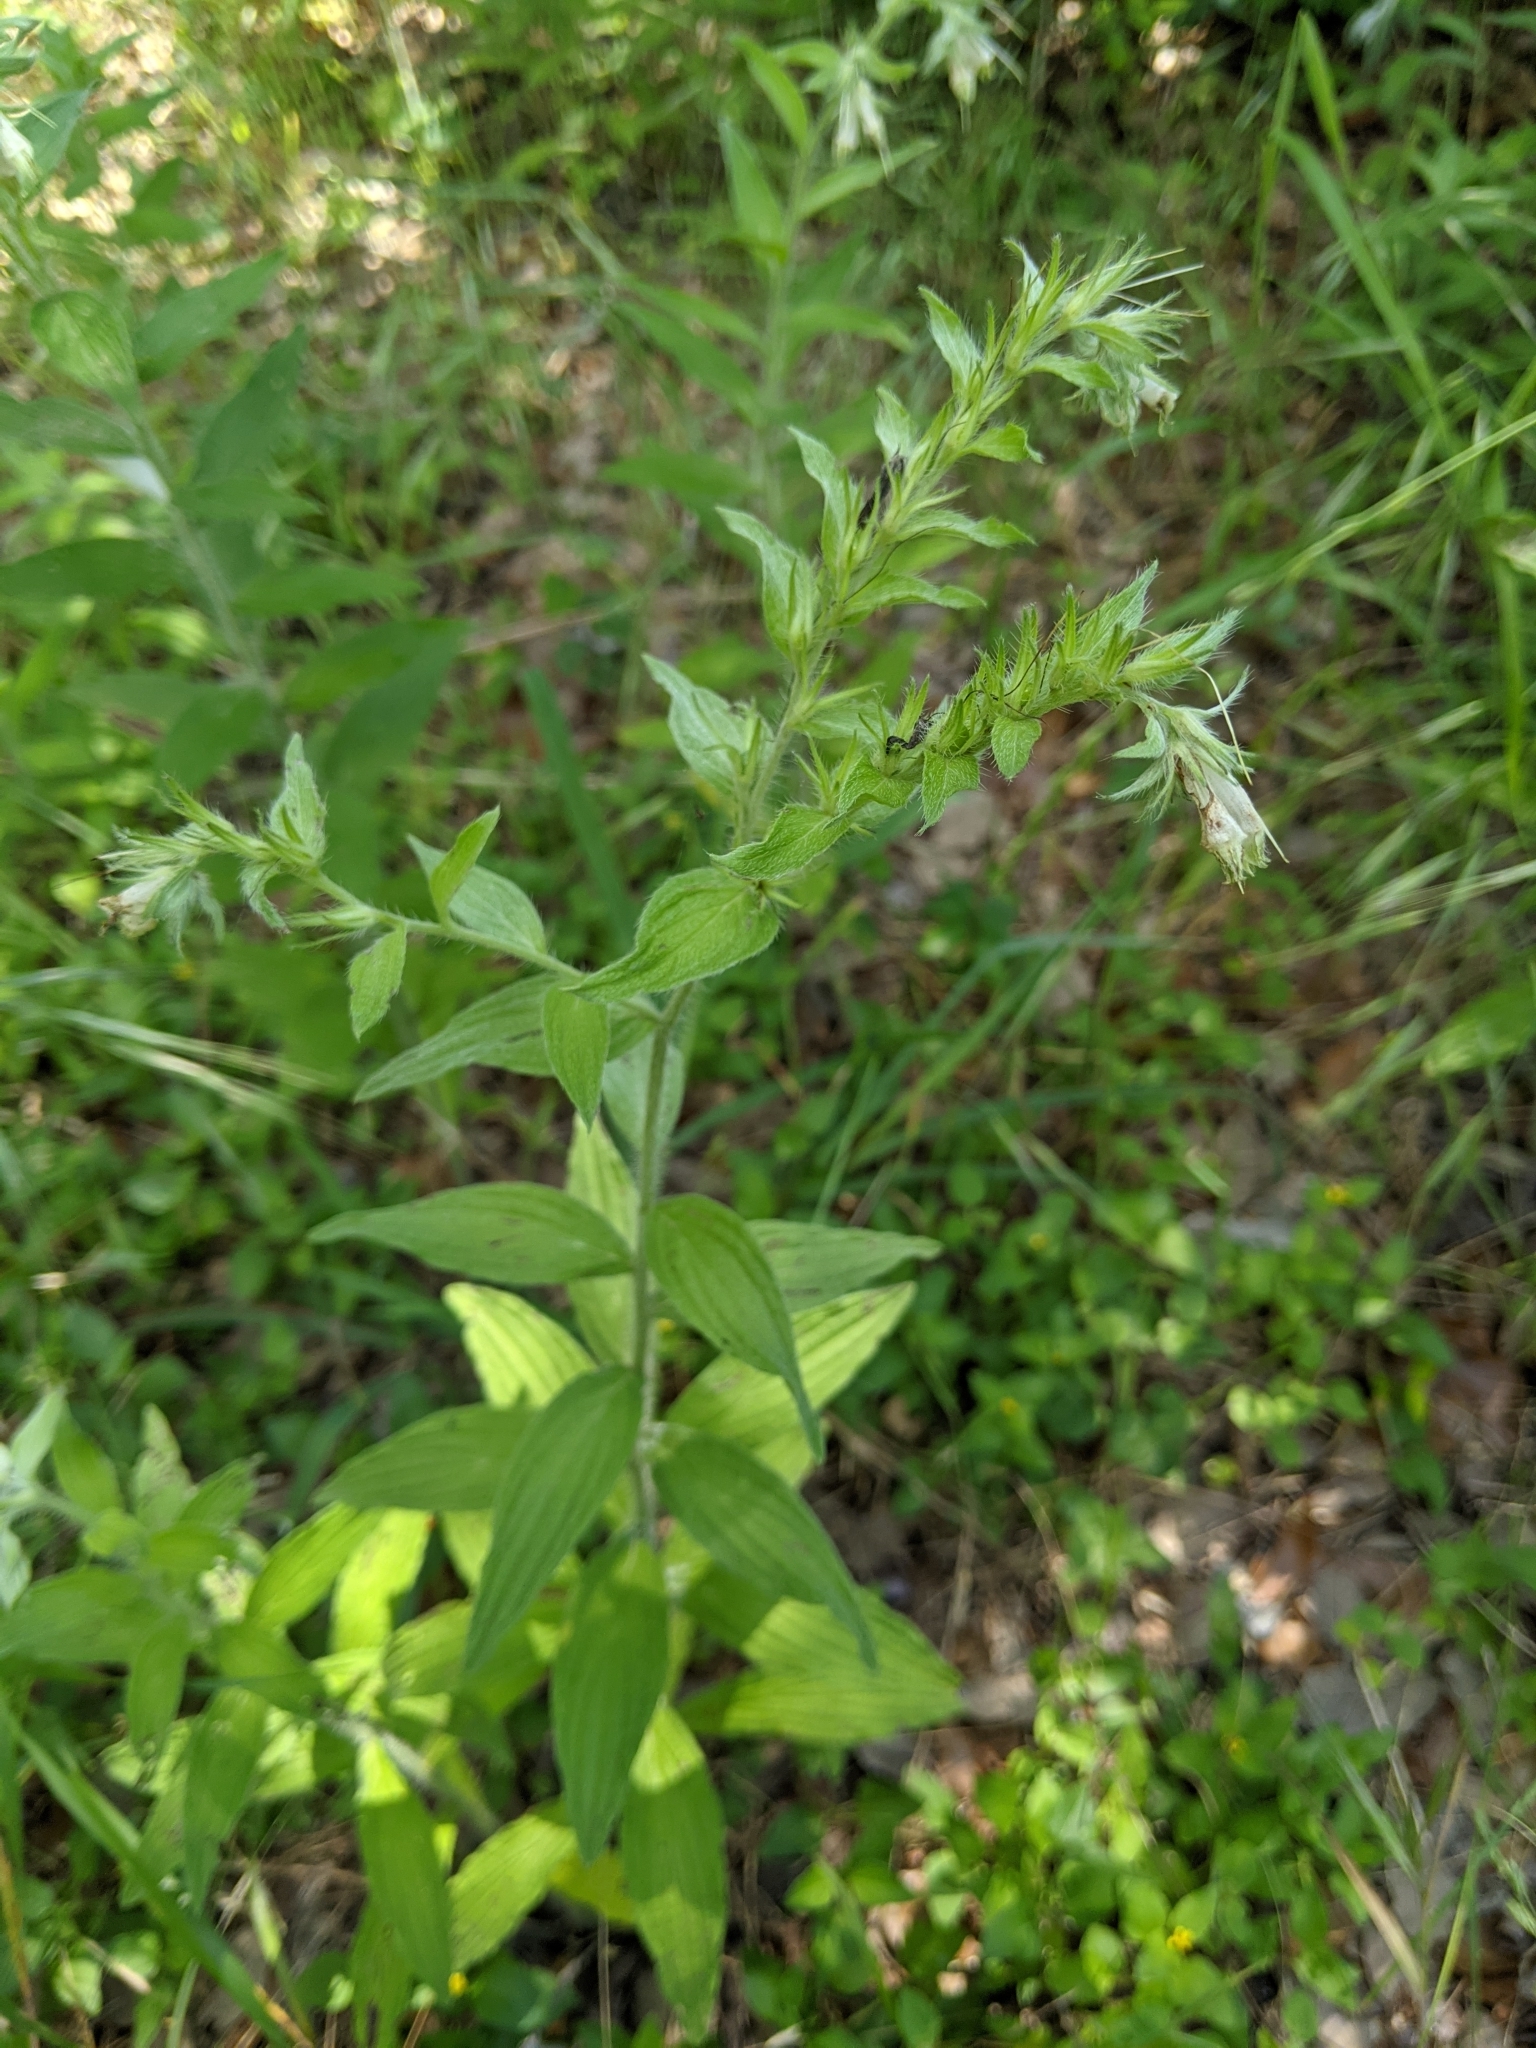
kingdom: Plantae
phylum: Tracheophyta
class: Magnoliopsida
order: Boraginales
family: Boraginaceae
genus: Lithospermum
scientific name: Lithospermum caroliniense
